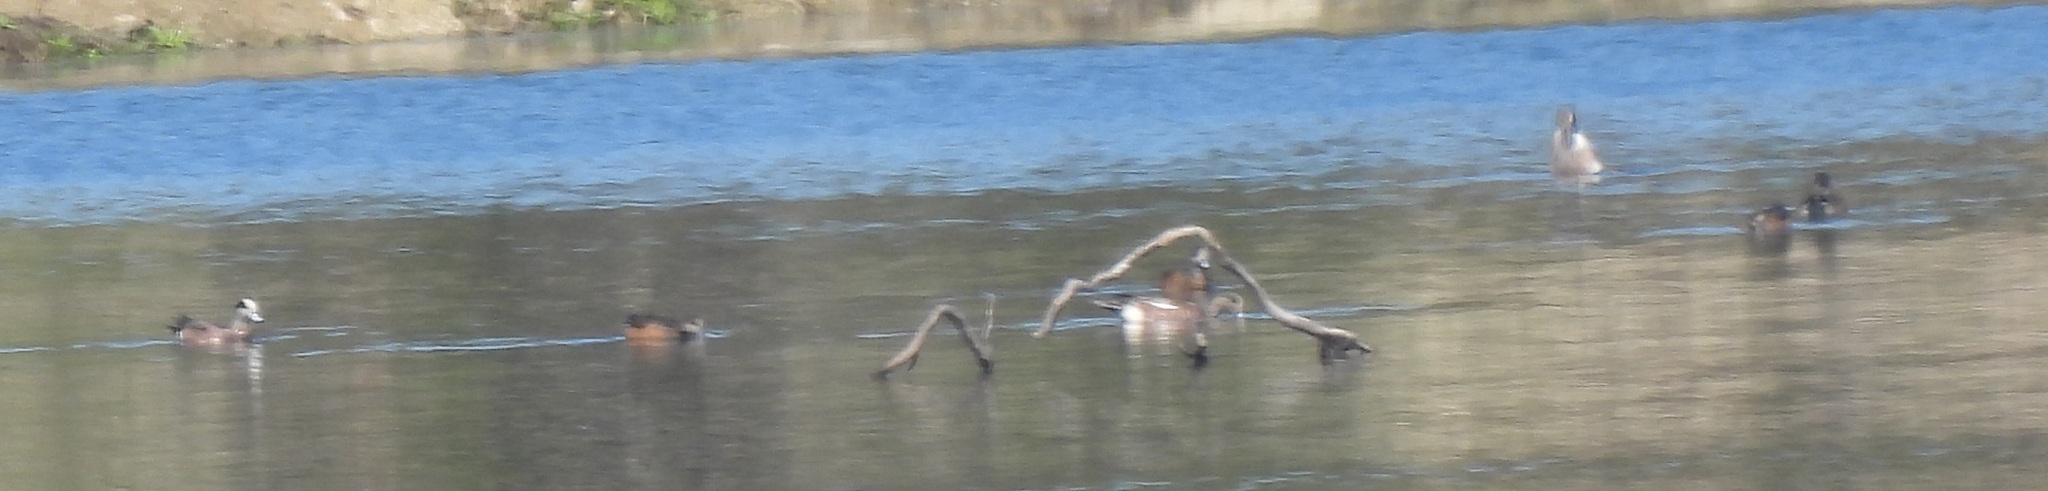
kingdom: Animalia
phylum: Chordata
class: Aves
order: Anseriformes
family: Anatidae
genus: Mareca
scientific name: Mareca americana
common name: American wigeon
